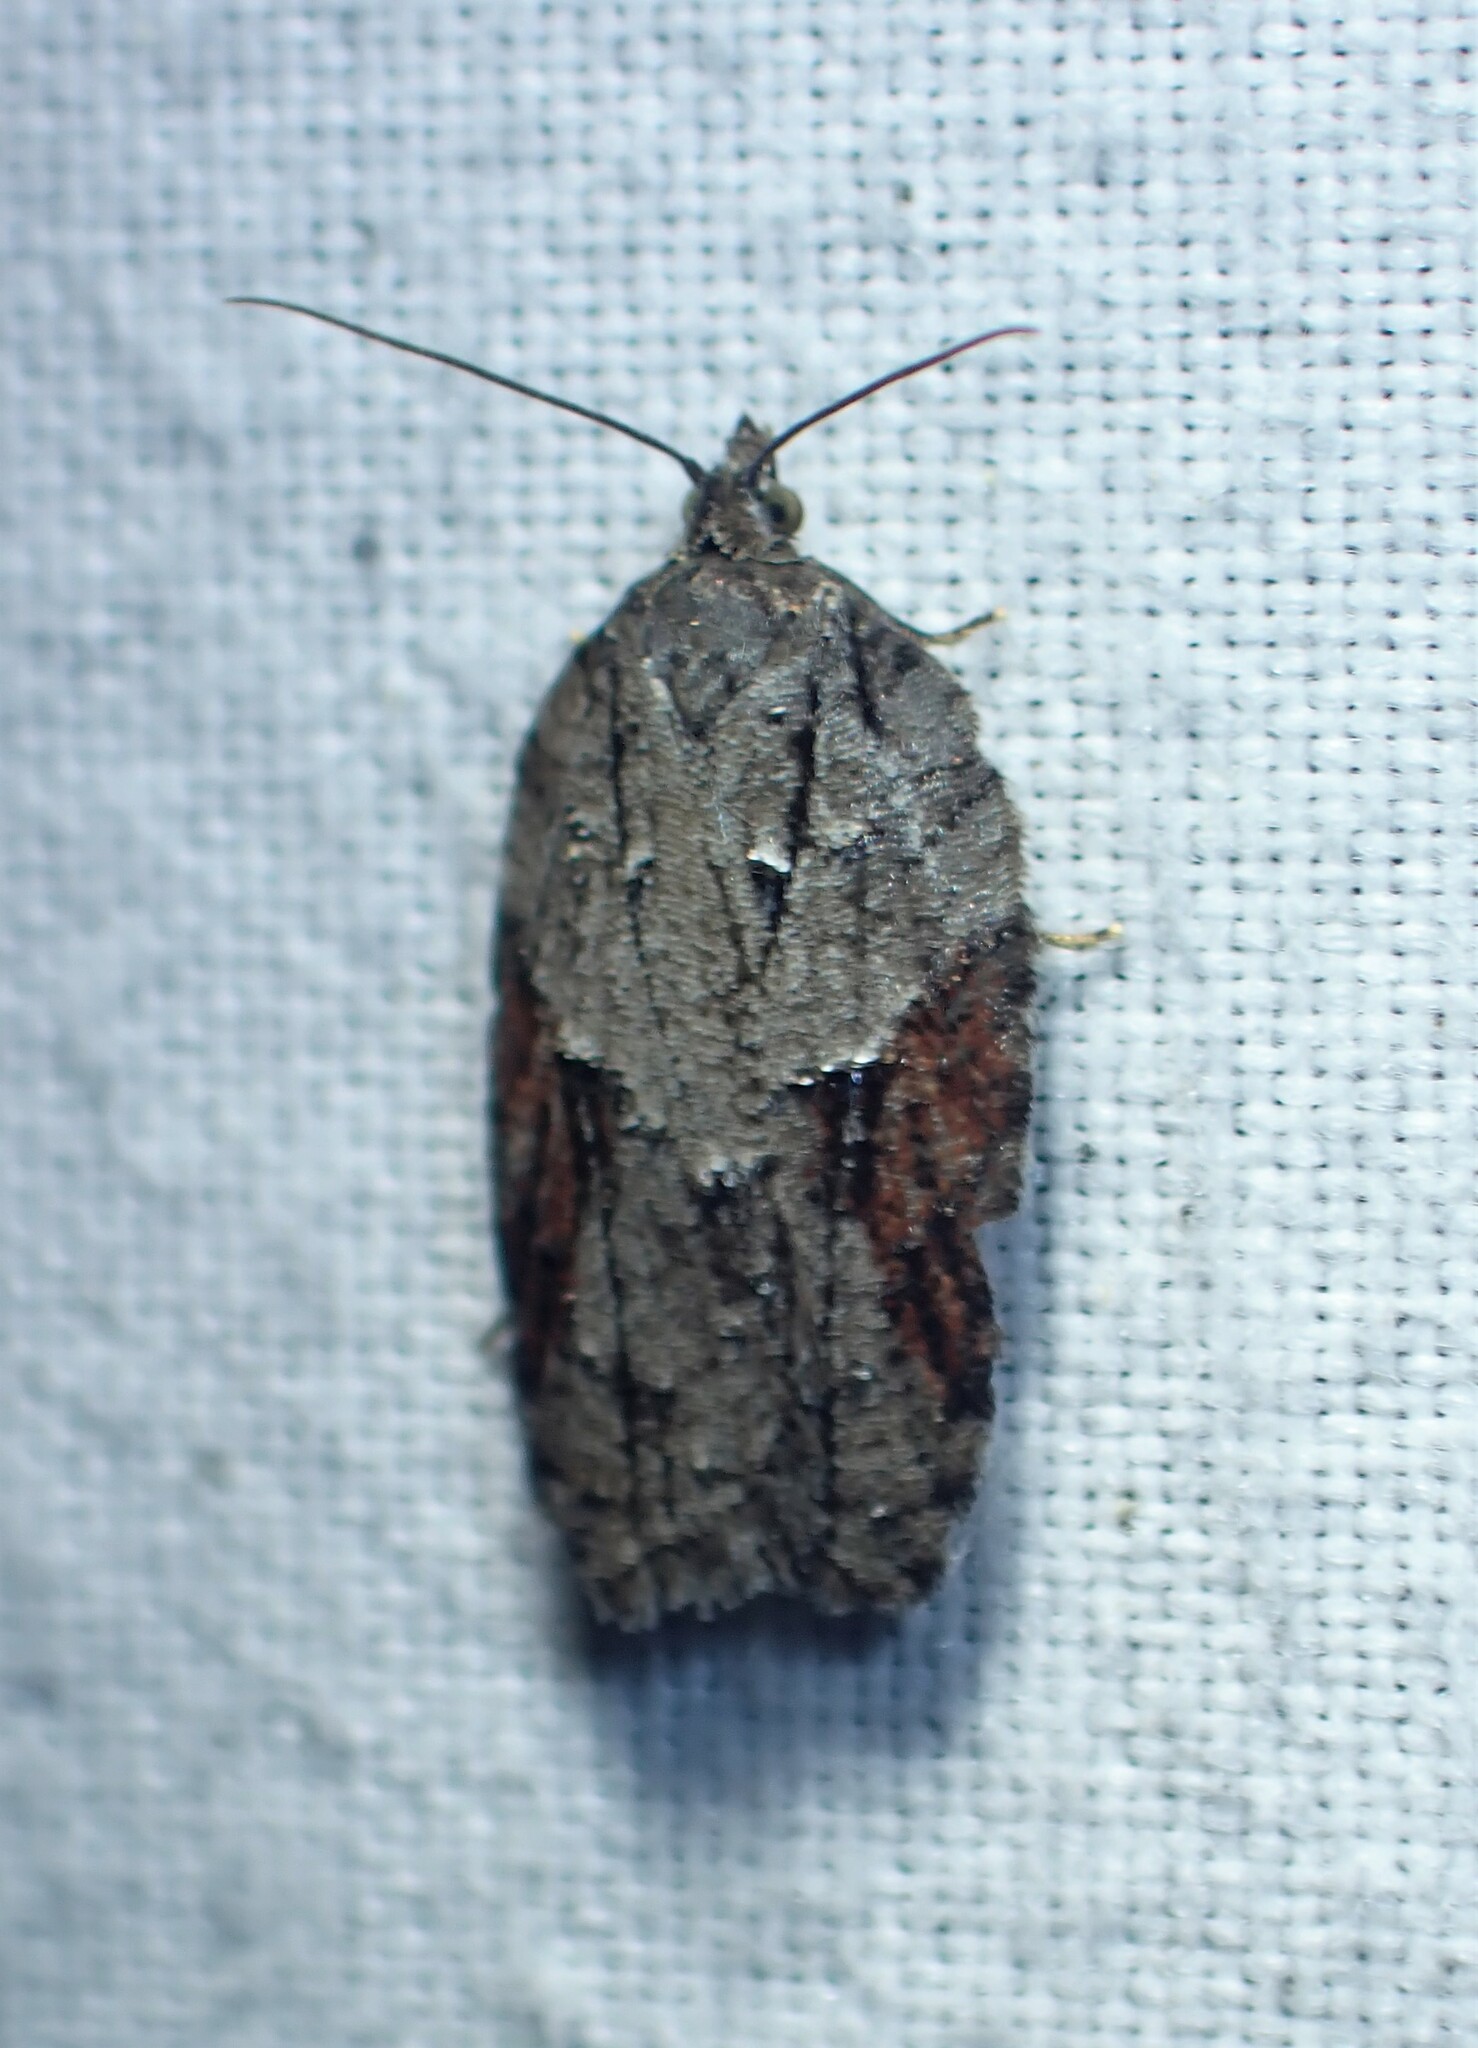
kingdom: Animalia
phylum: Arthropoda
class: Insecta
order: Lepidoptera
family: Tortricidae
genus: Acleris
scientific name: Acleris ptychogrammos
